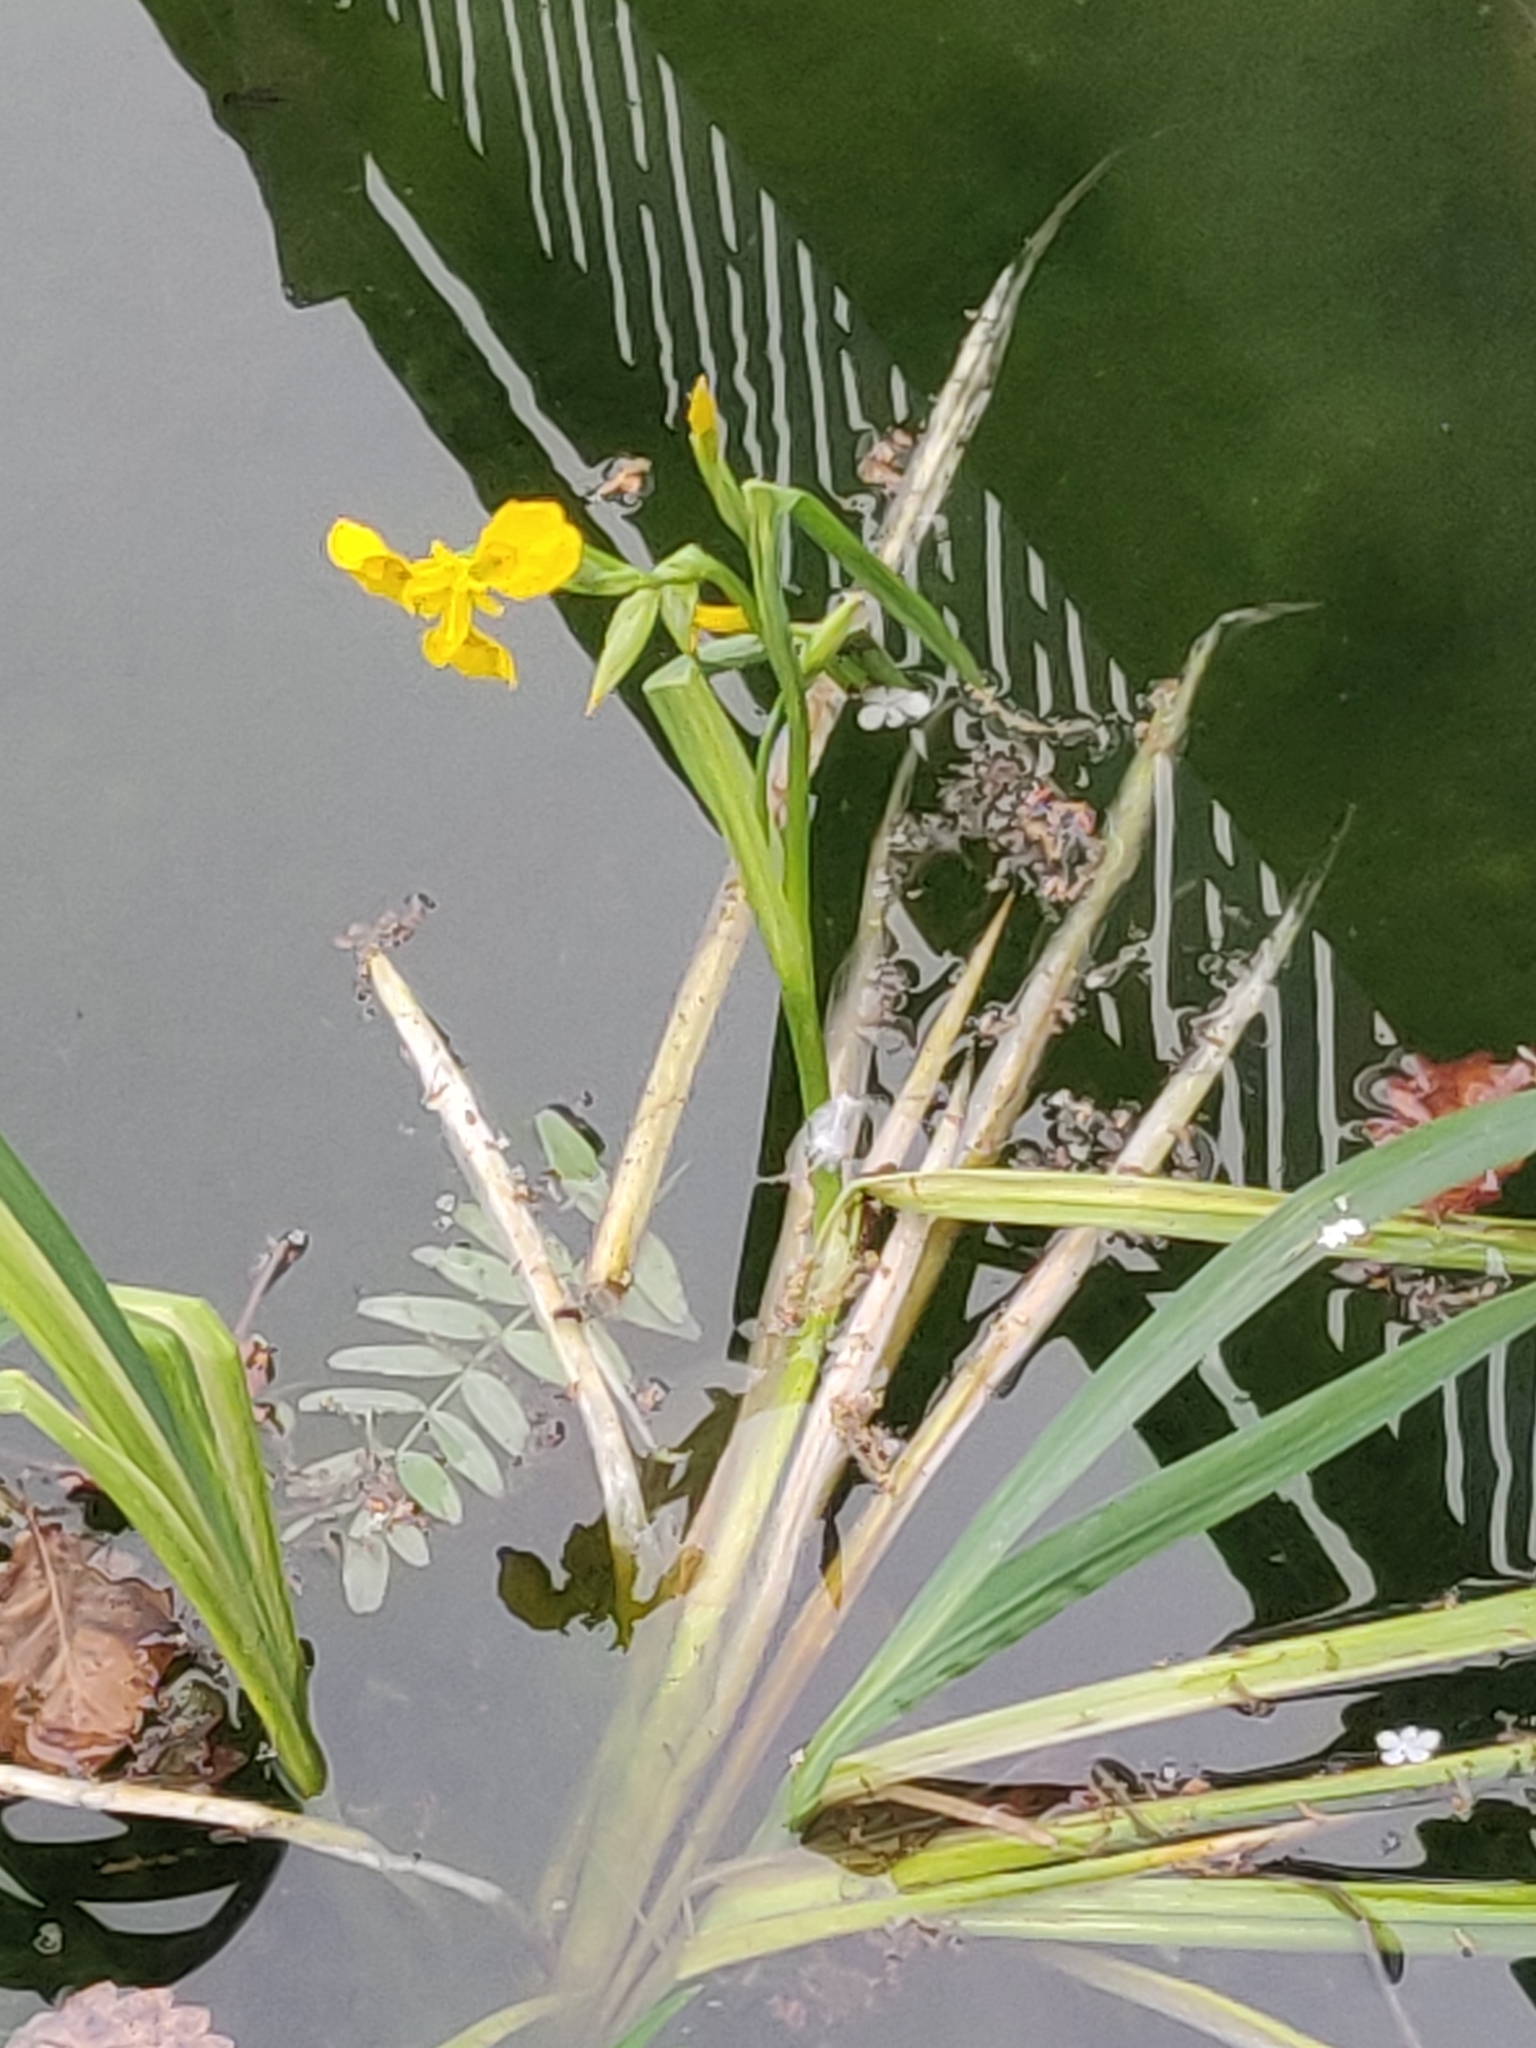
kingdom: Plantae
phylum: Tracheophyta
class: Liliopsida
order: Asparagales
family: Iridaceae
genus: Iris
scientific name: Iris pseudacorus
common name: Yellow flag
